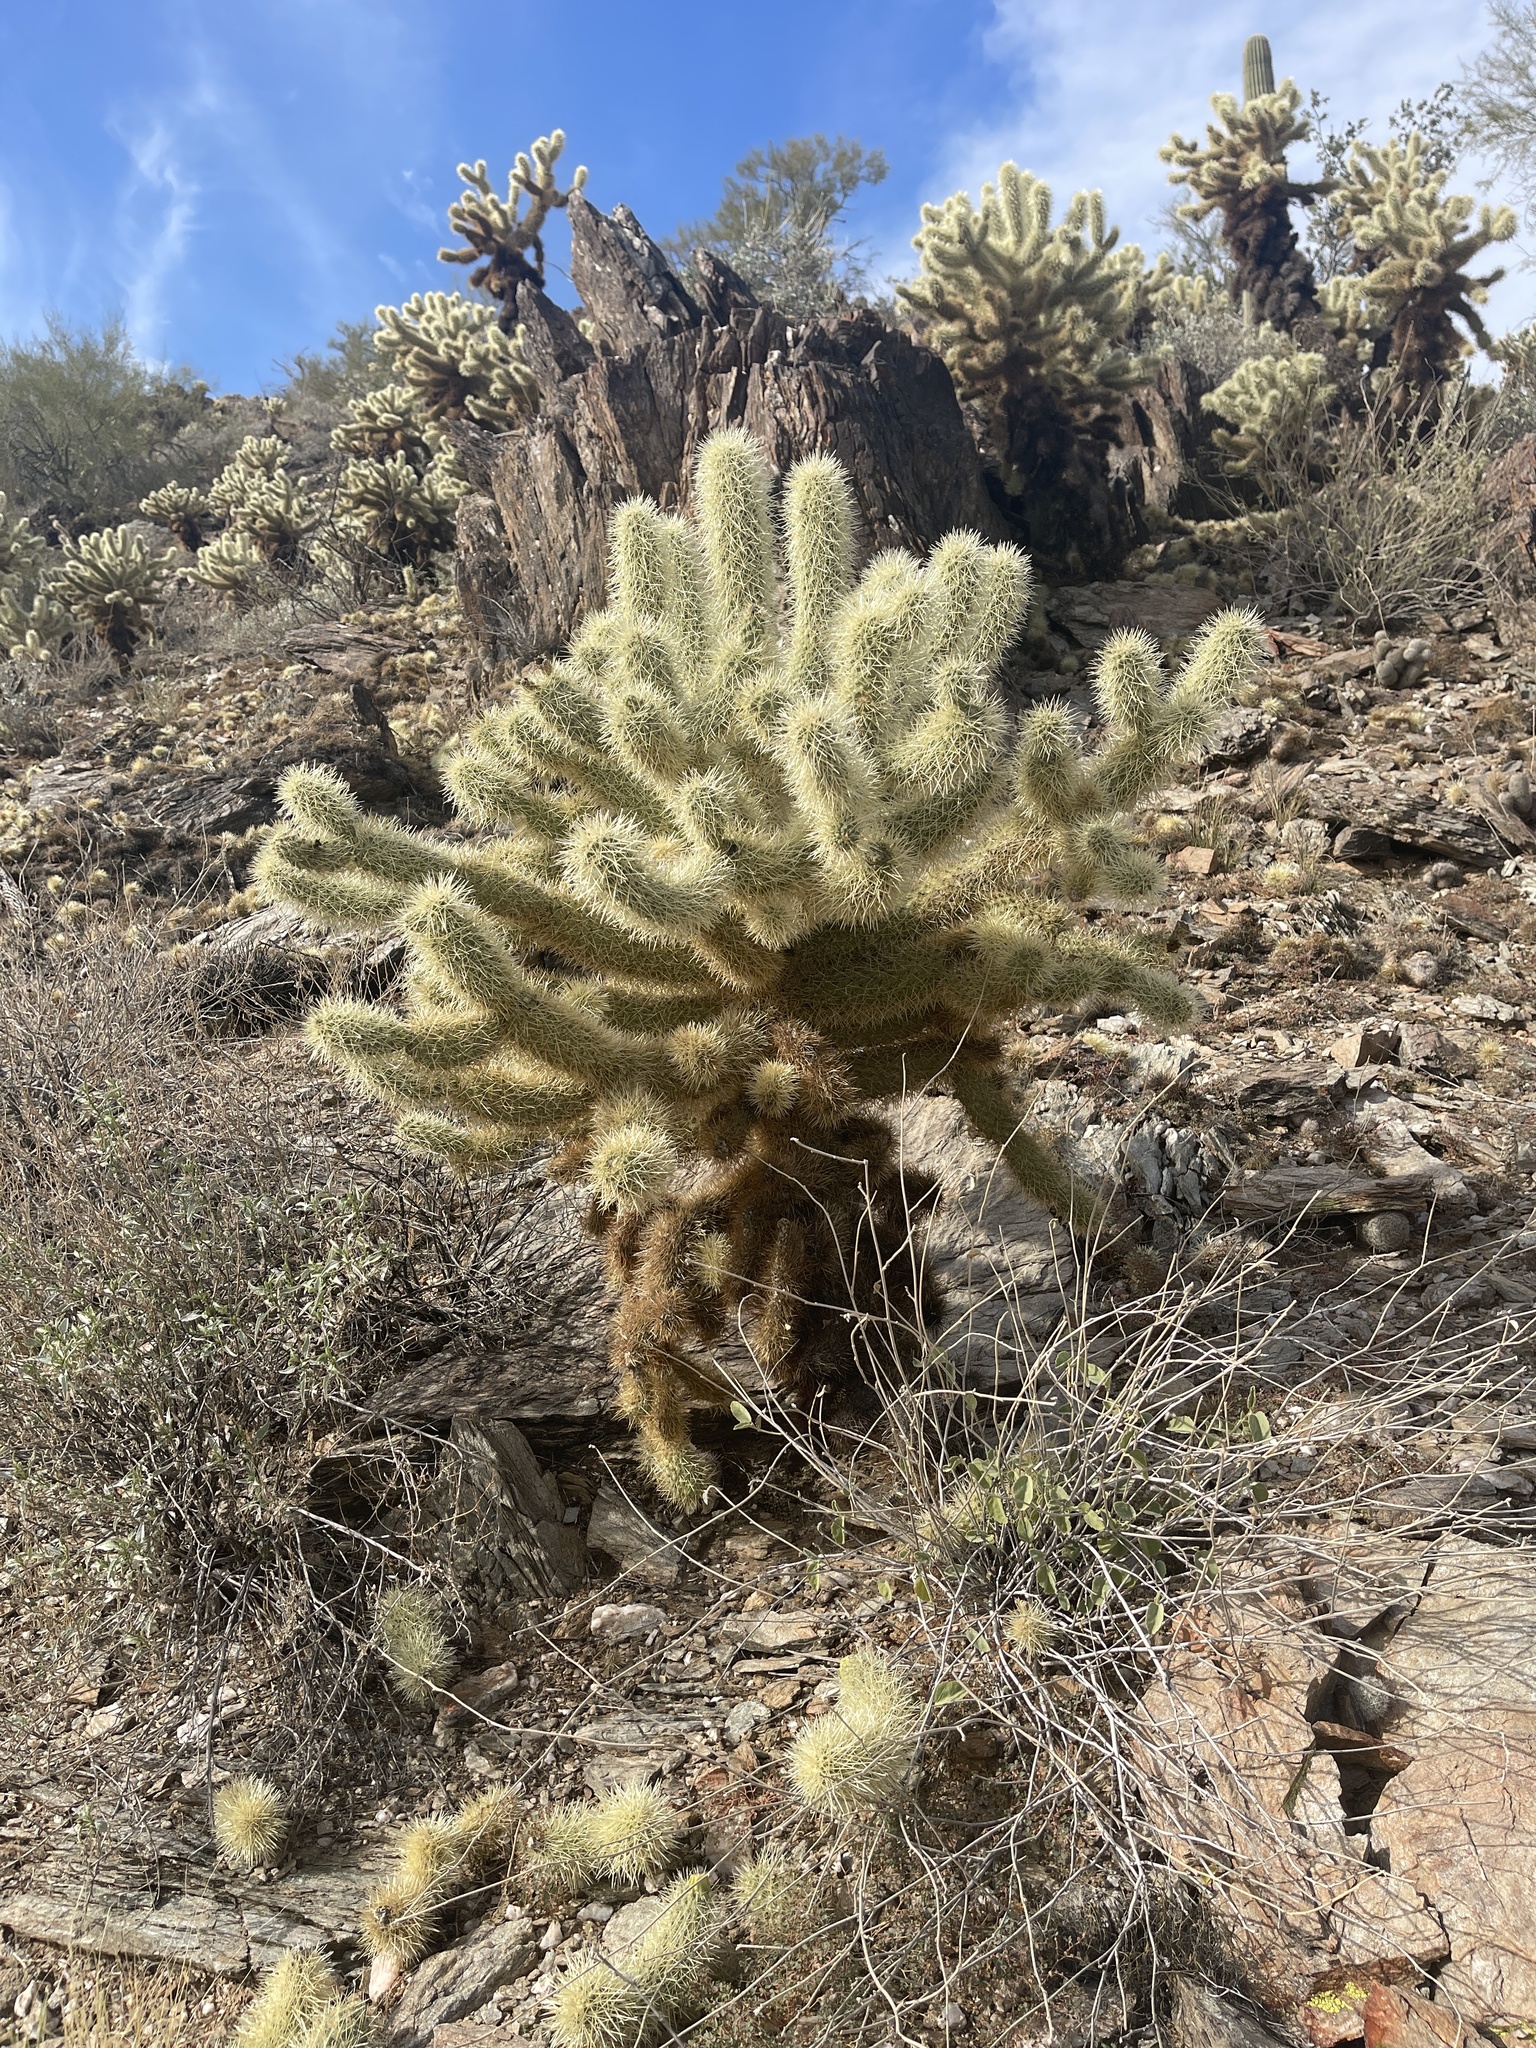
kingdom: Plantae
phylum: Tracheophyta
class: Magnoliopsida
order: Caryophyllales
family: Cactaceae
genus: Cylindropuntia
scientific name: Cylindropuntia fosbergii
